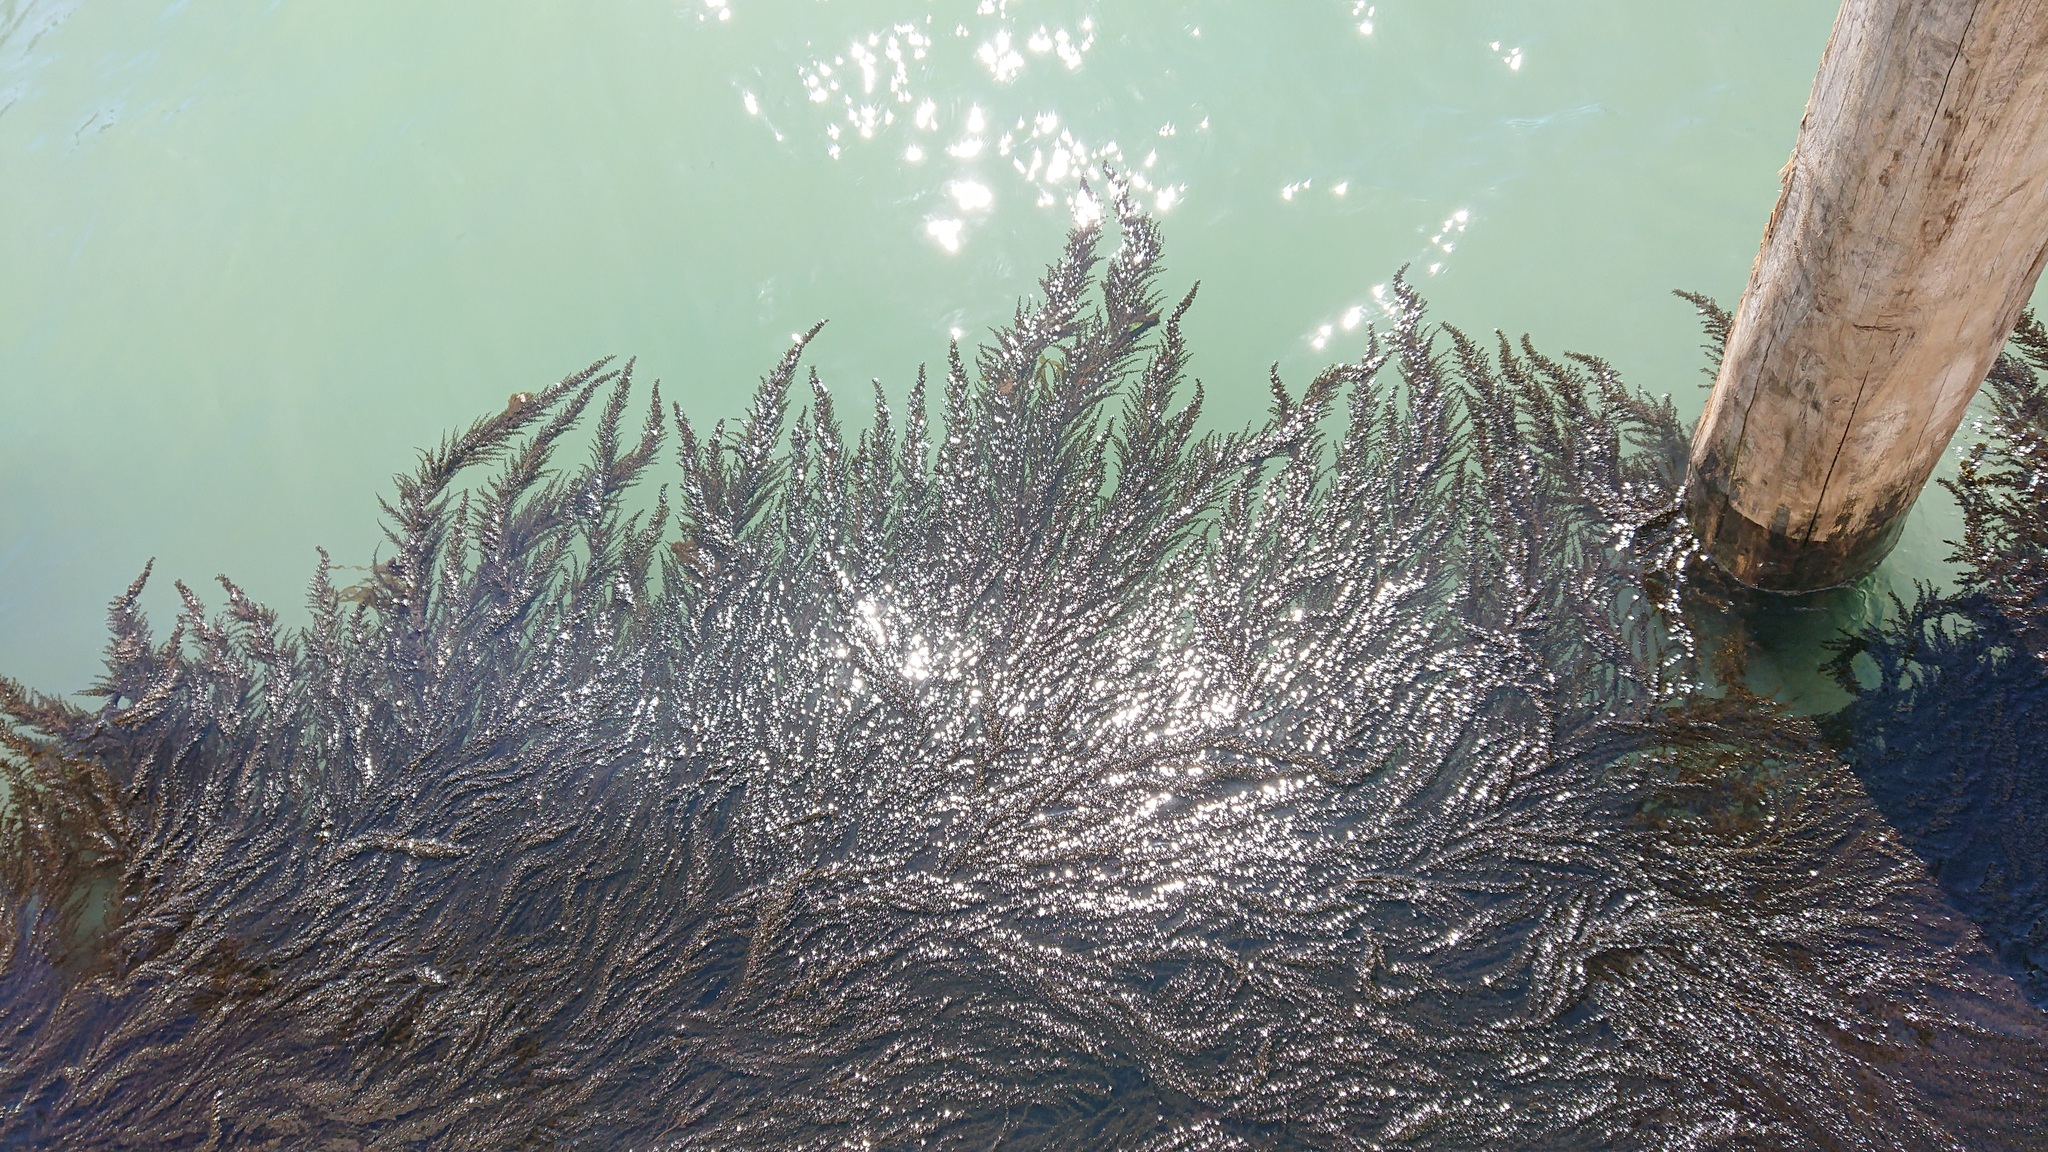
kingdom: Chromista
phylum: Ochrophyta
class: Phaeophyceae
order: Fucales
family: Sargassaceae
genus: Sargassum
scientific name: Sargassum muticum
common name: Japweed
